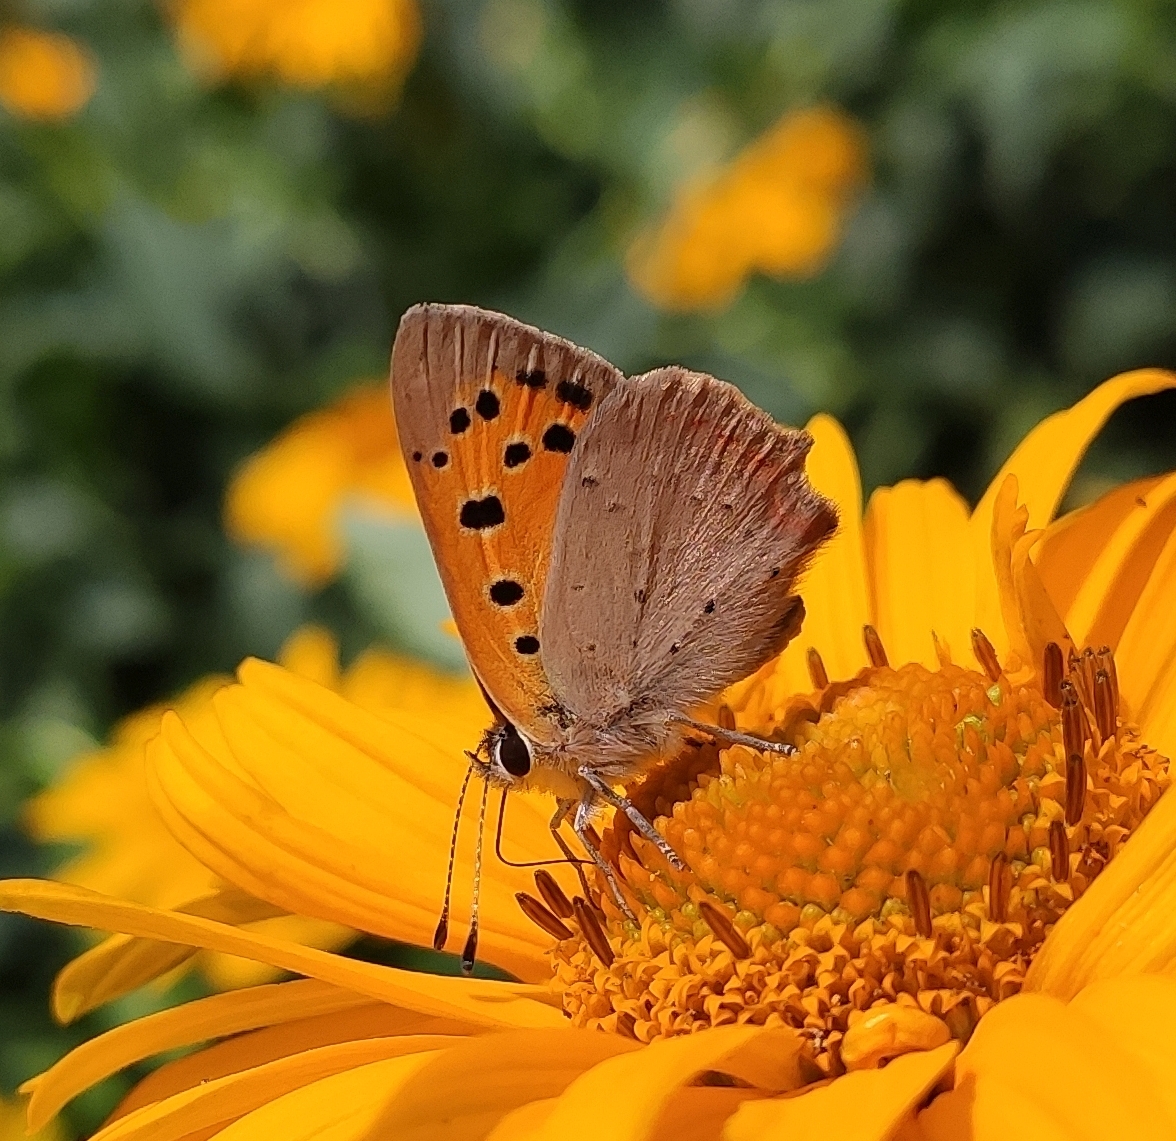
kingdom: Animalia
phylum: Arthropoda
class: Insecta
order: Lepidoptera
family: Lycaenidae
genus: Lycaena
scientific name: Lycaena phlaeas
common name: Small copper
